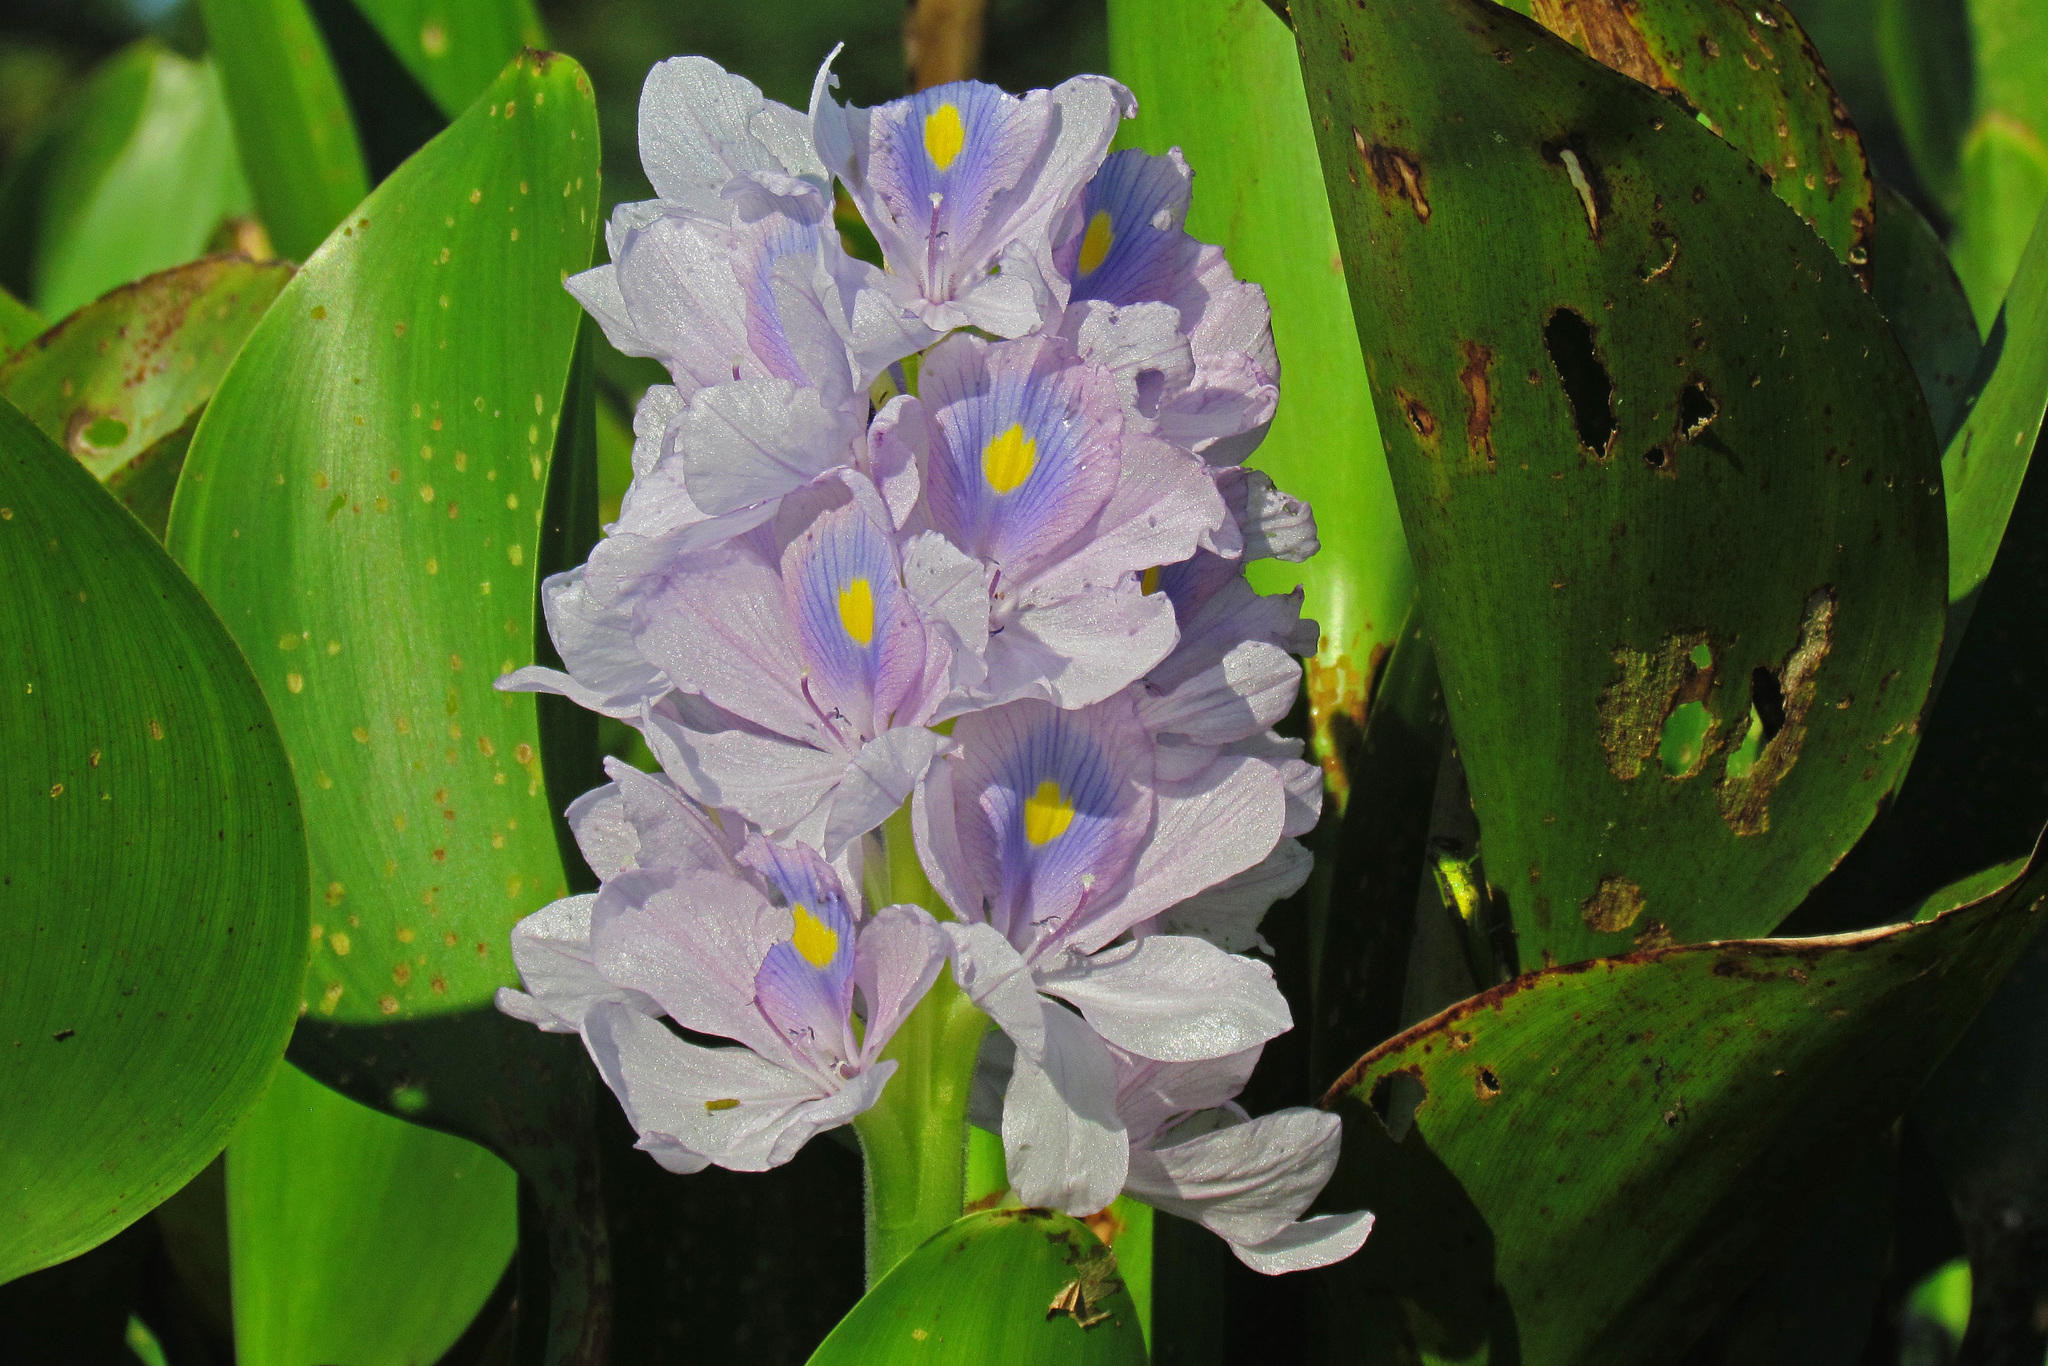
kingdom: Plantae
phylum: Tracheophyta
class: Liliopsida
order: Commelinales
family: Pontederiaceae
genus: Pontederia
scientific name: Pontederia crassipes
